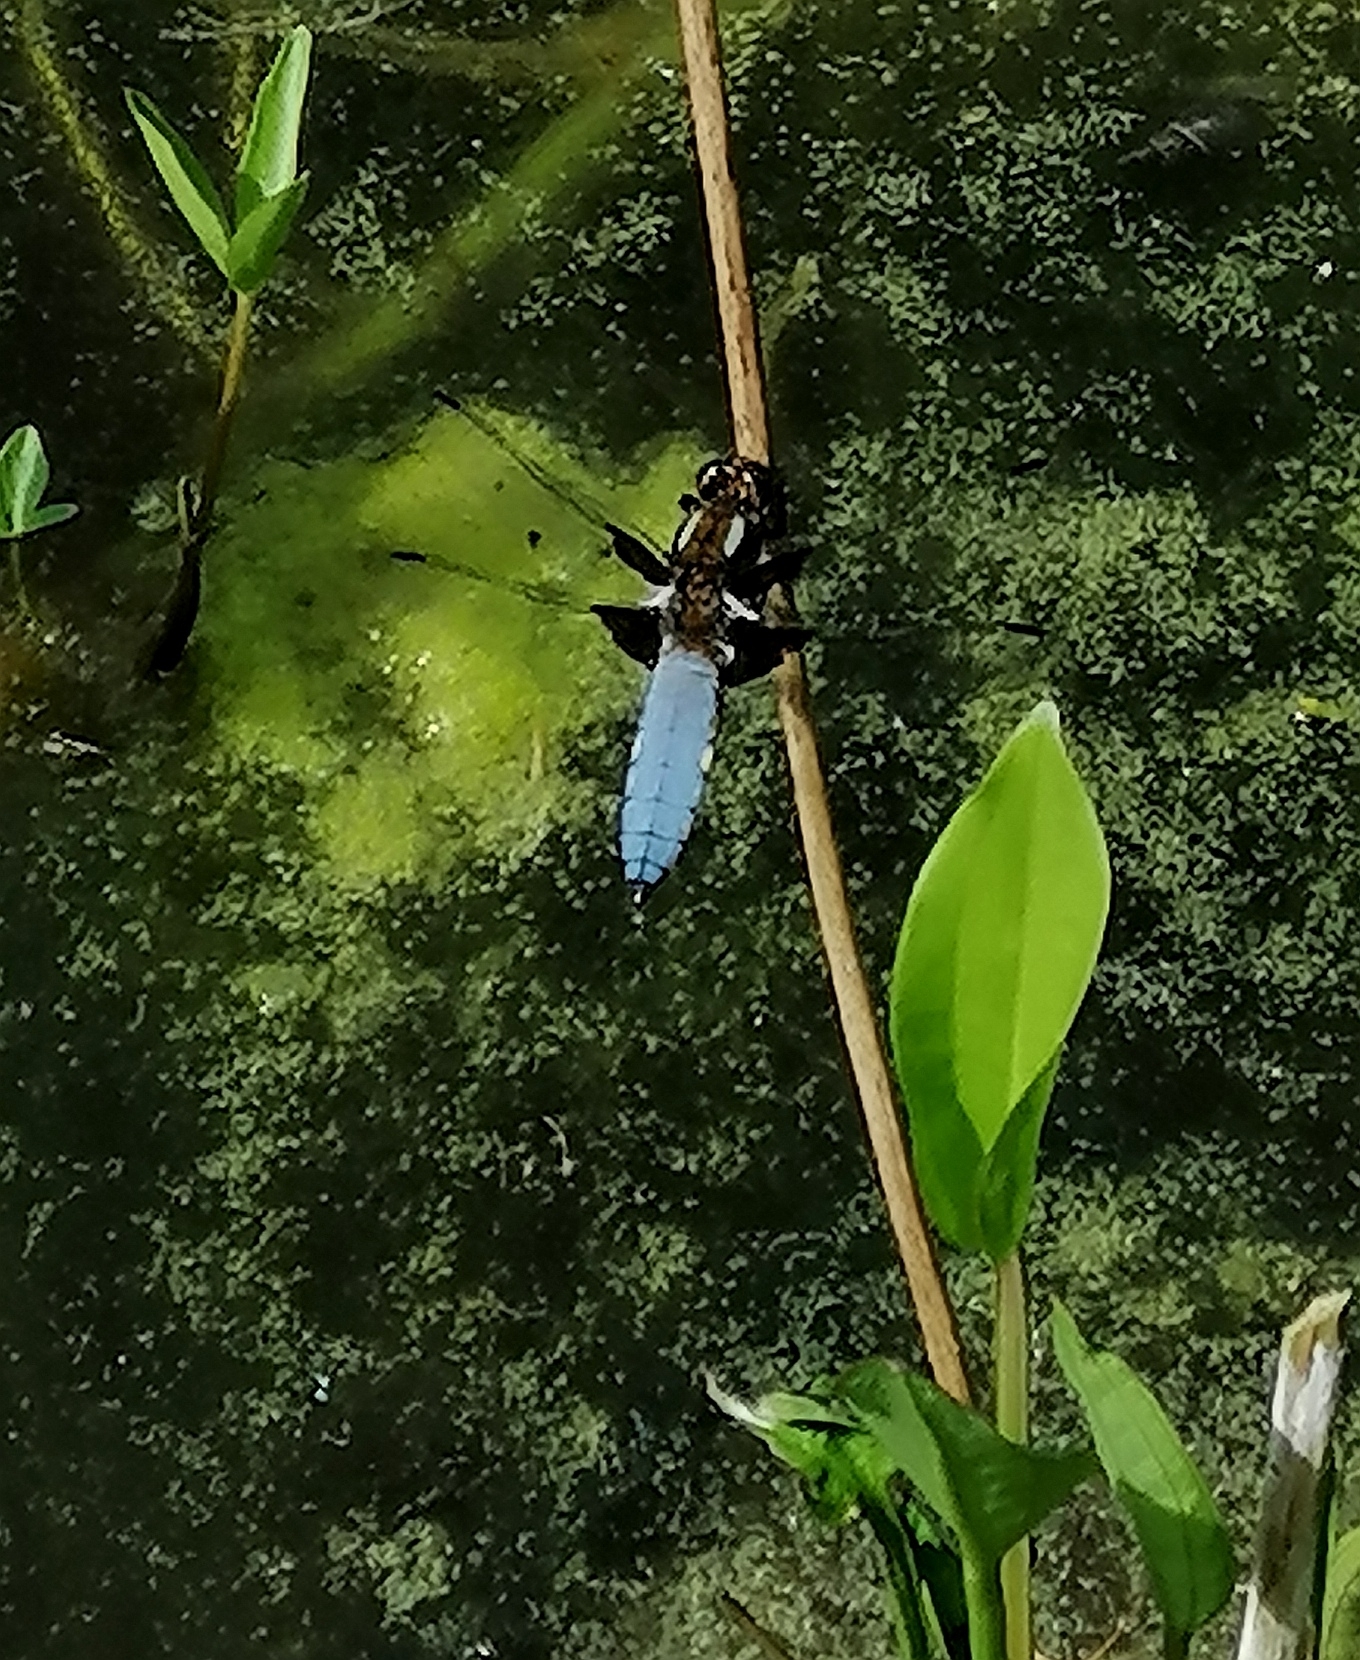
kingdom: Animalia
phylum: Arthropoda
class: Insecta
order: Odonata
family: Libellulidae
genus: Libellula
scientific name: Libellula depressa
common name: Broad-bodied chaser
